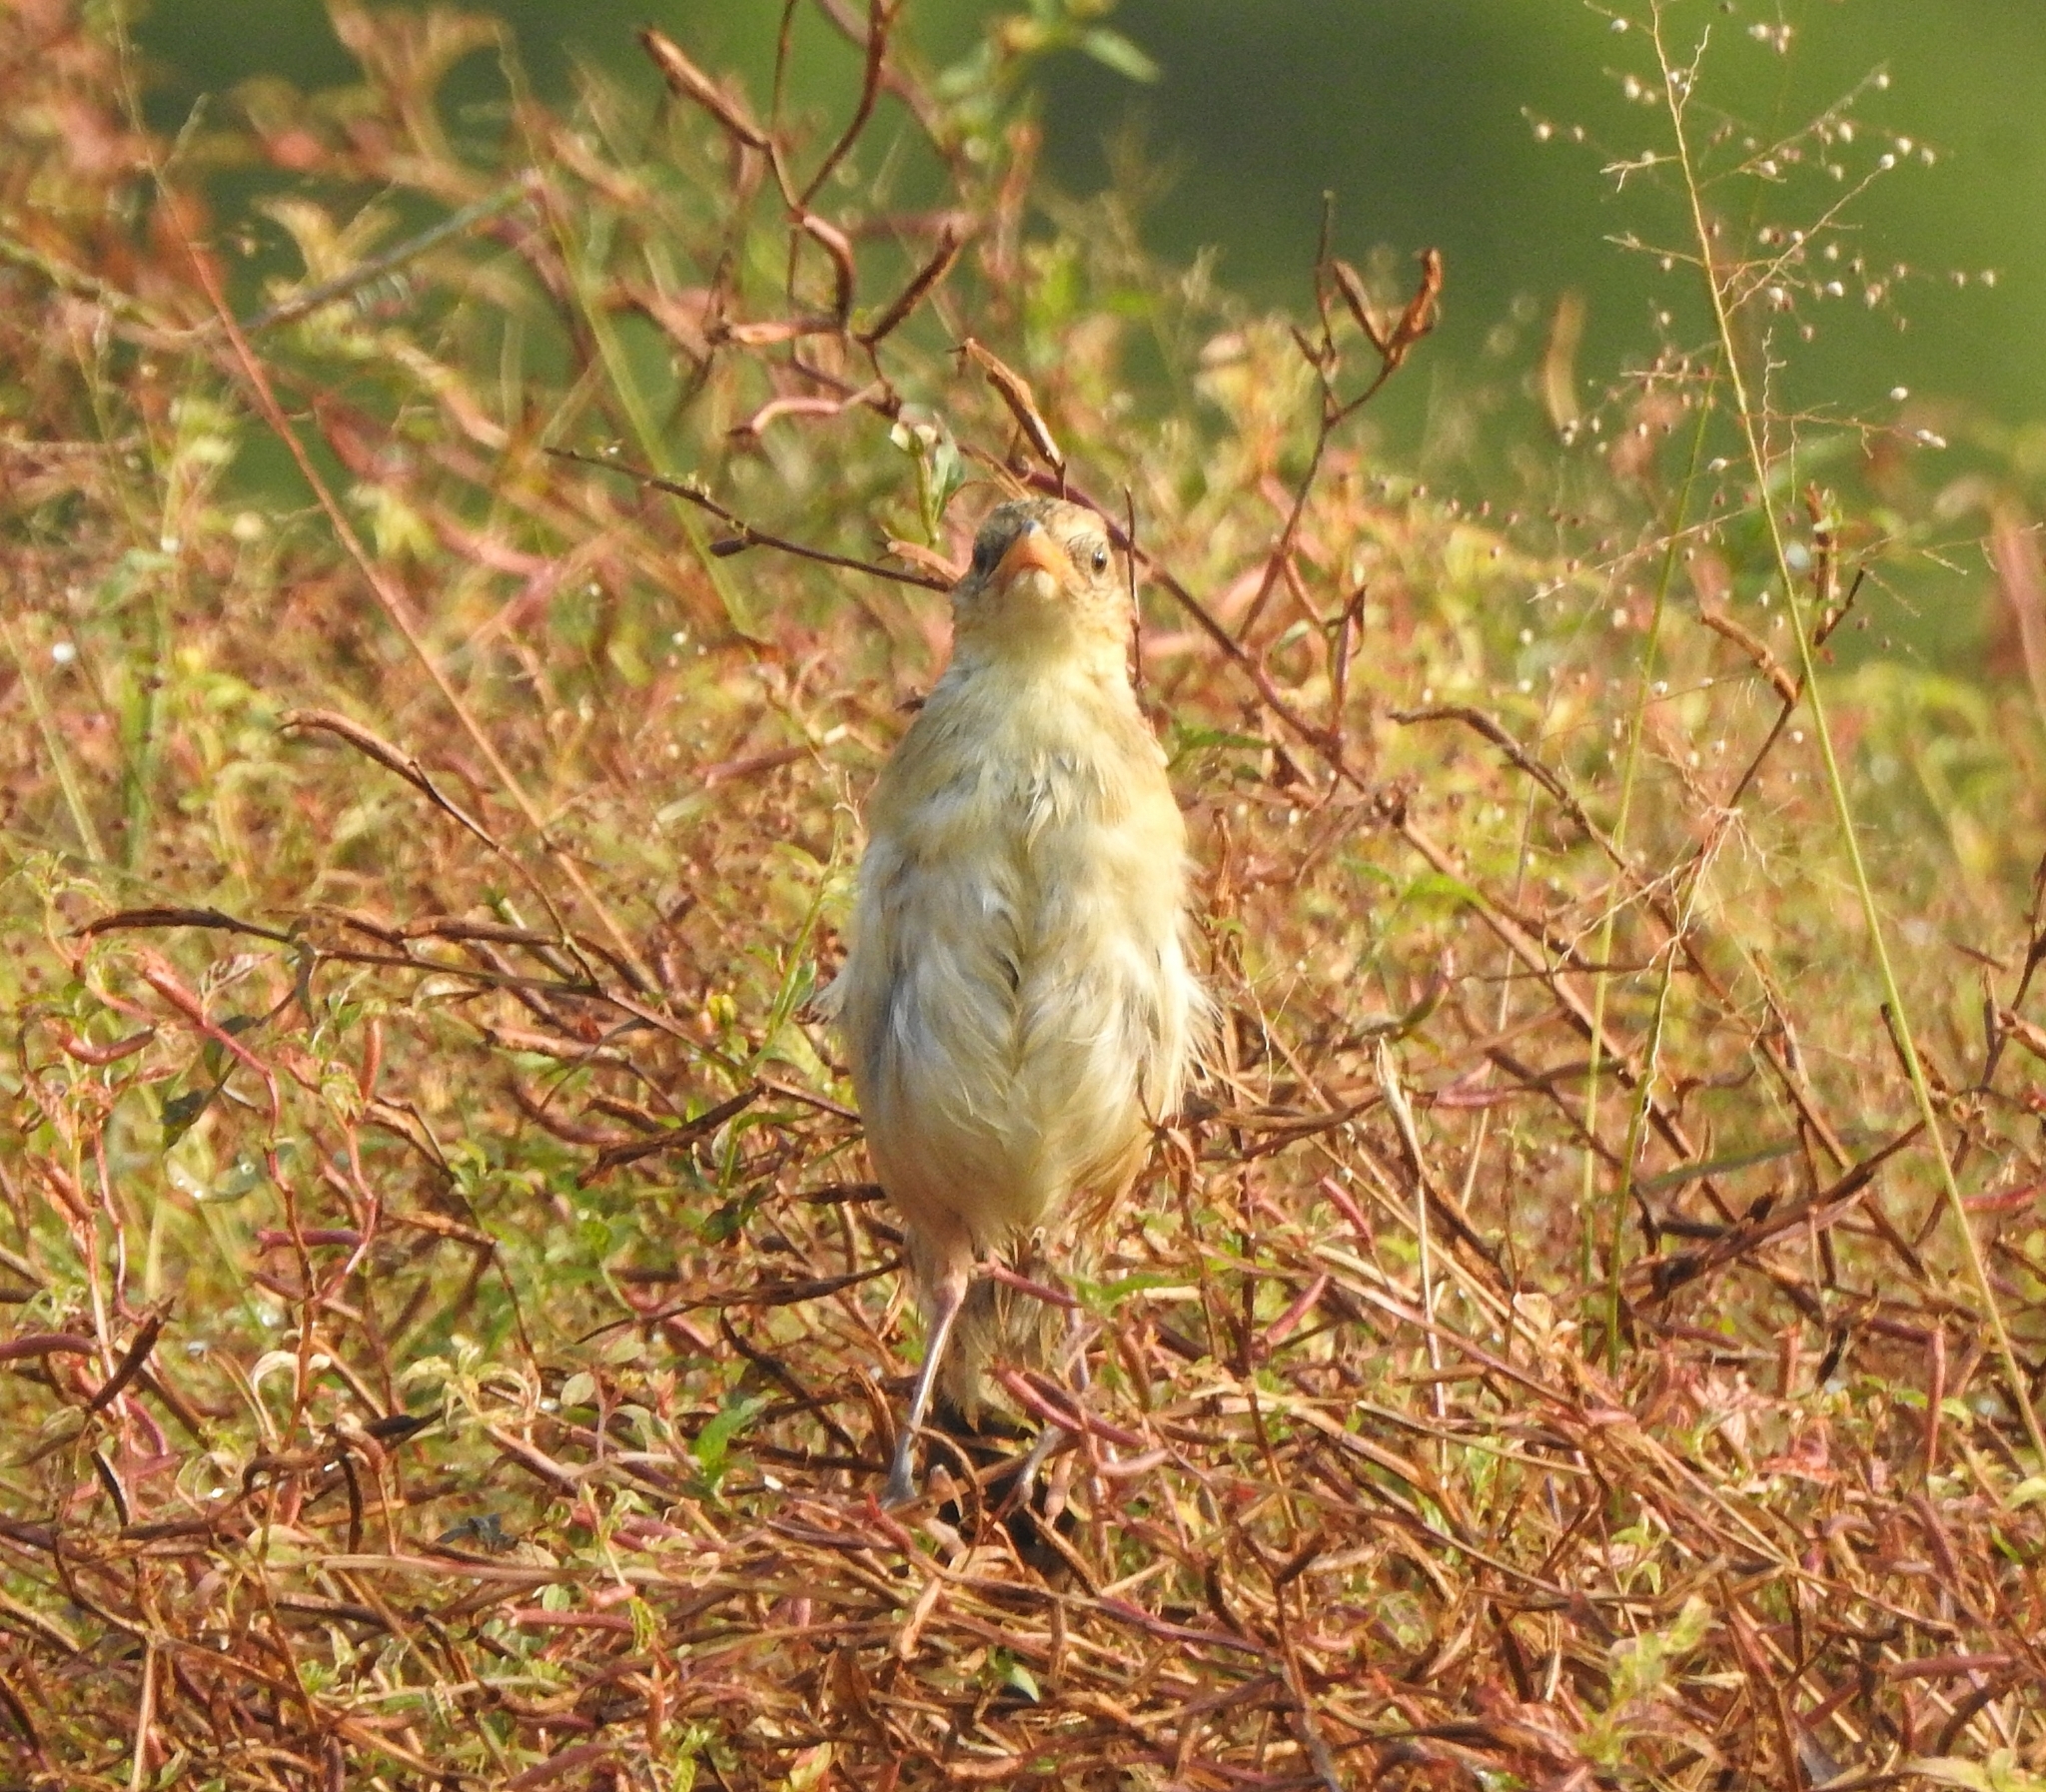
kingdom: Animalia
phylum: Chordata
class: Aves
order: Passeriformes
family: Locustellidae
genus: Chaetornis
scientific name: Chaetornis striata
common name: Bristled grassbird
